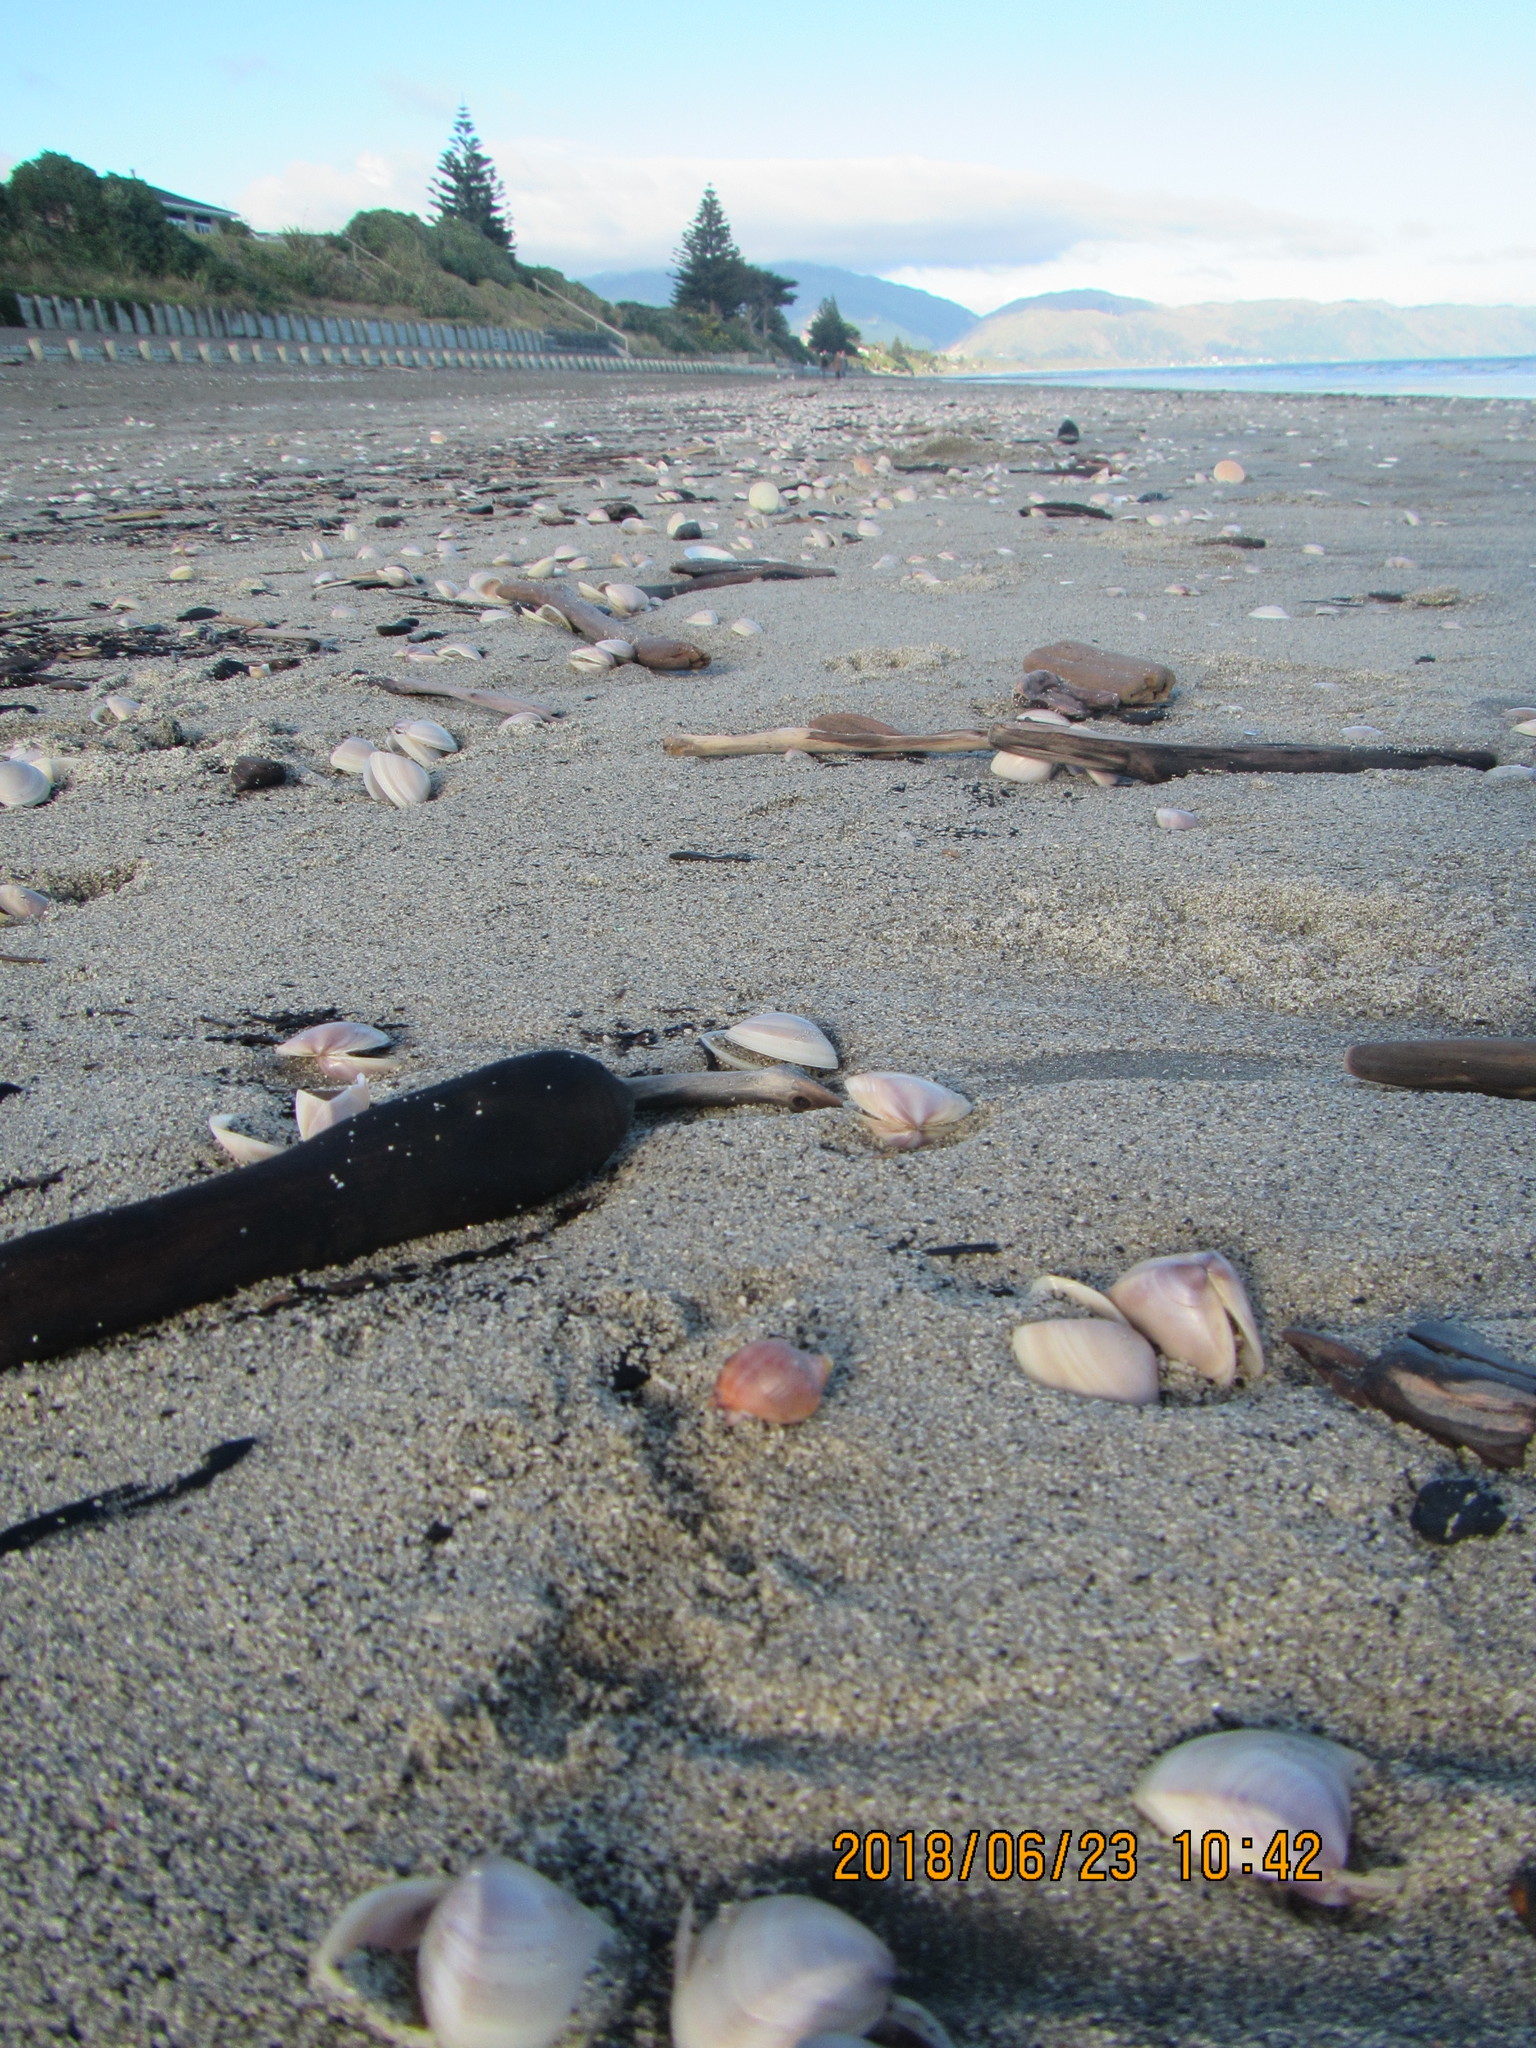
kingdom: Animalia
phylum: Mollusca
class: Gastropoda
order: Littorinimorpha
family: Cassidae
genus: Semicassis
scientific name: Semicassis pyrum
